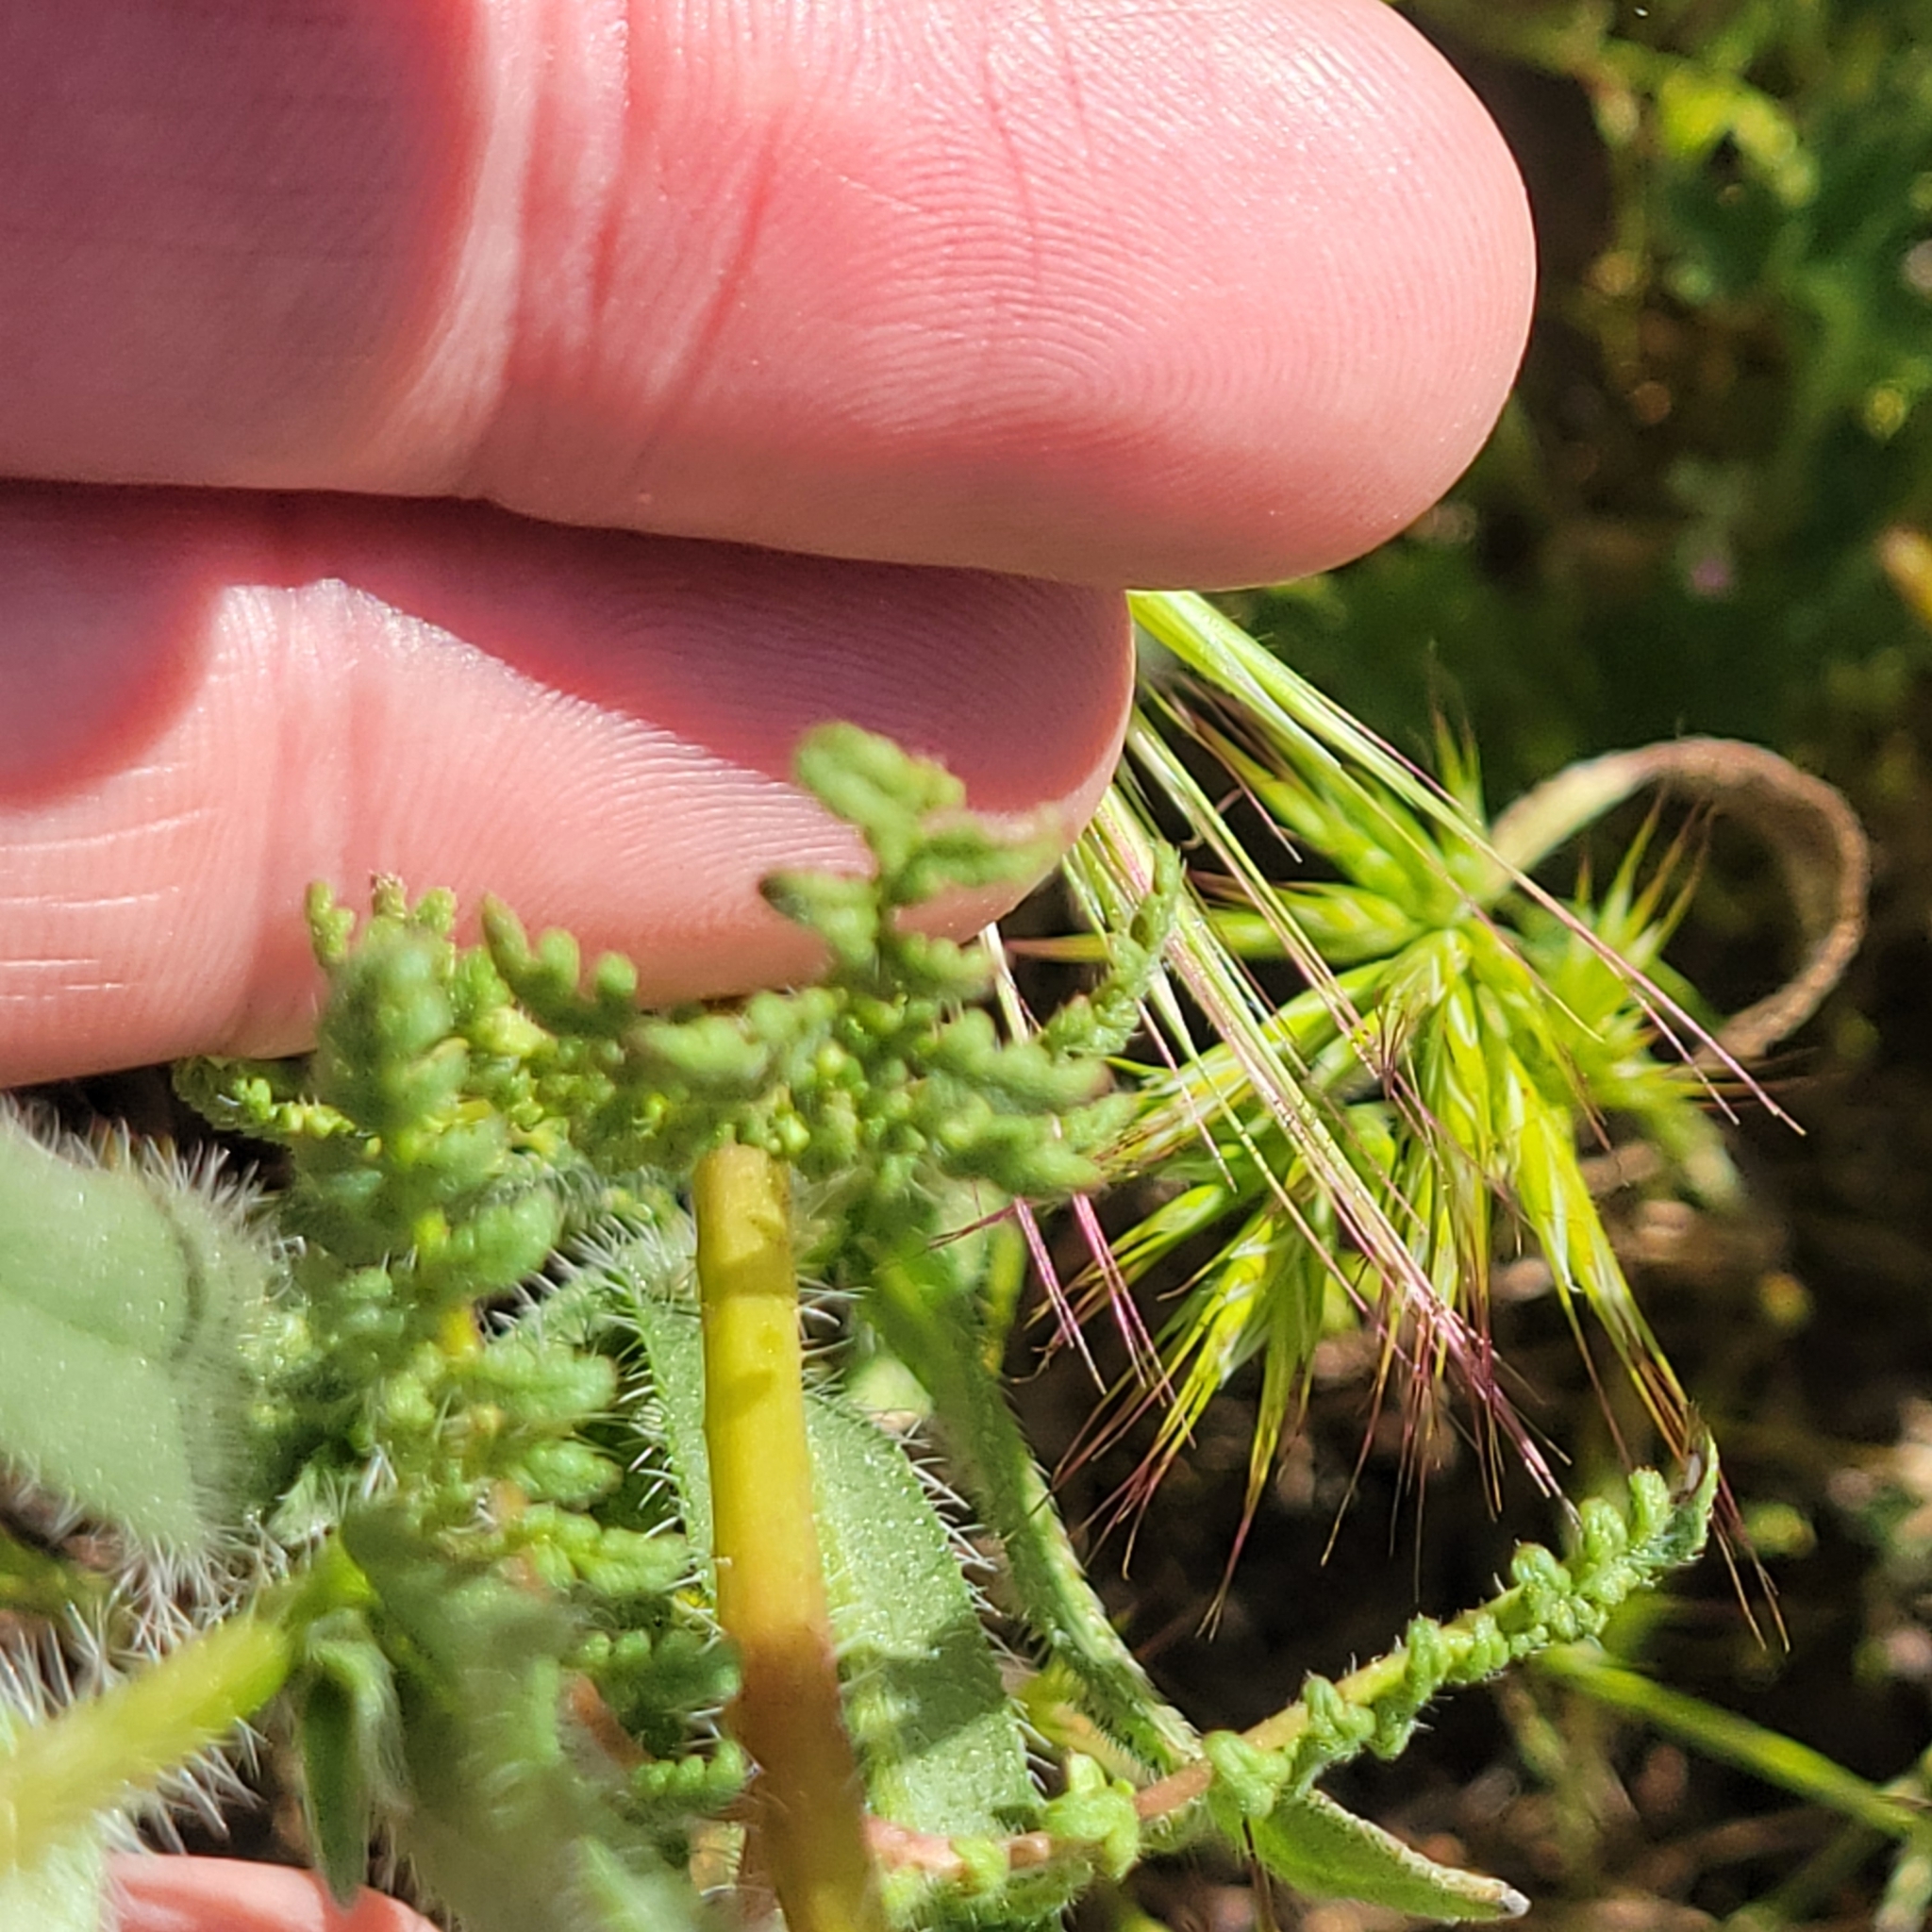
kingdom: Plantae
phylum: Tracheophyta
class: Magnoliopsida
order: Boraginales
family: Hydrophyllaceae
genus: Phacelia
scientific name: Phacelia tanacetifolia
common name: Phacelia
